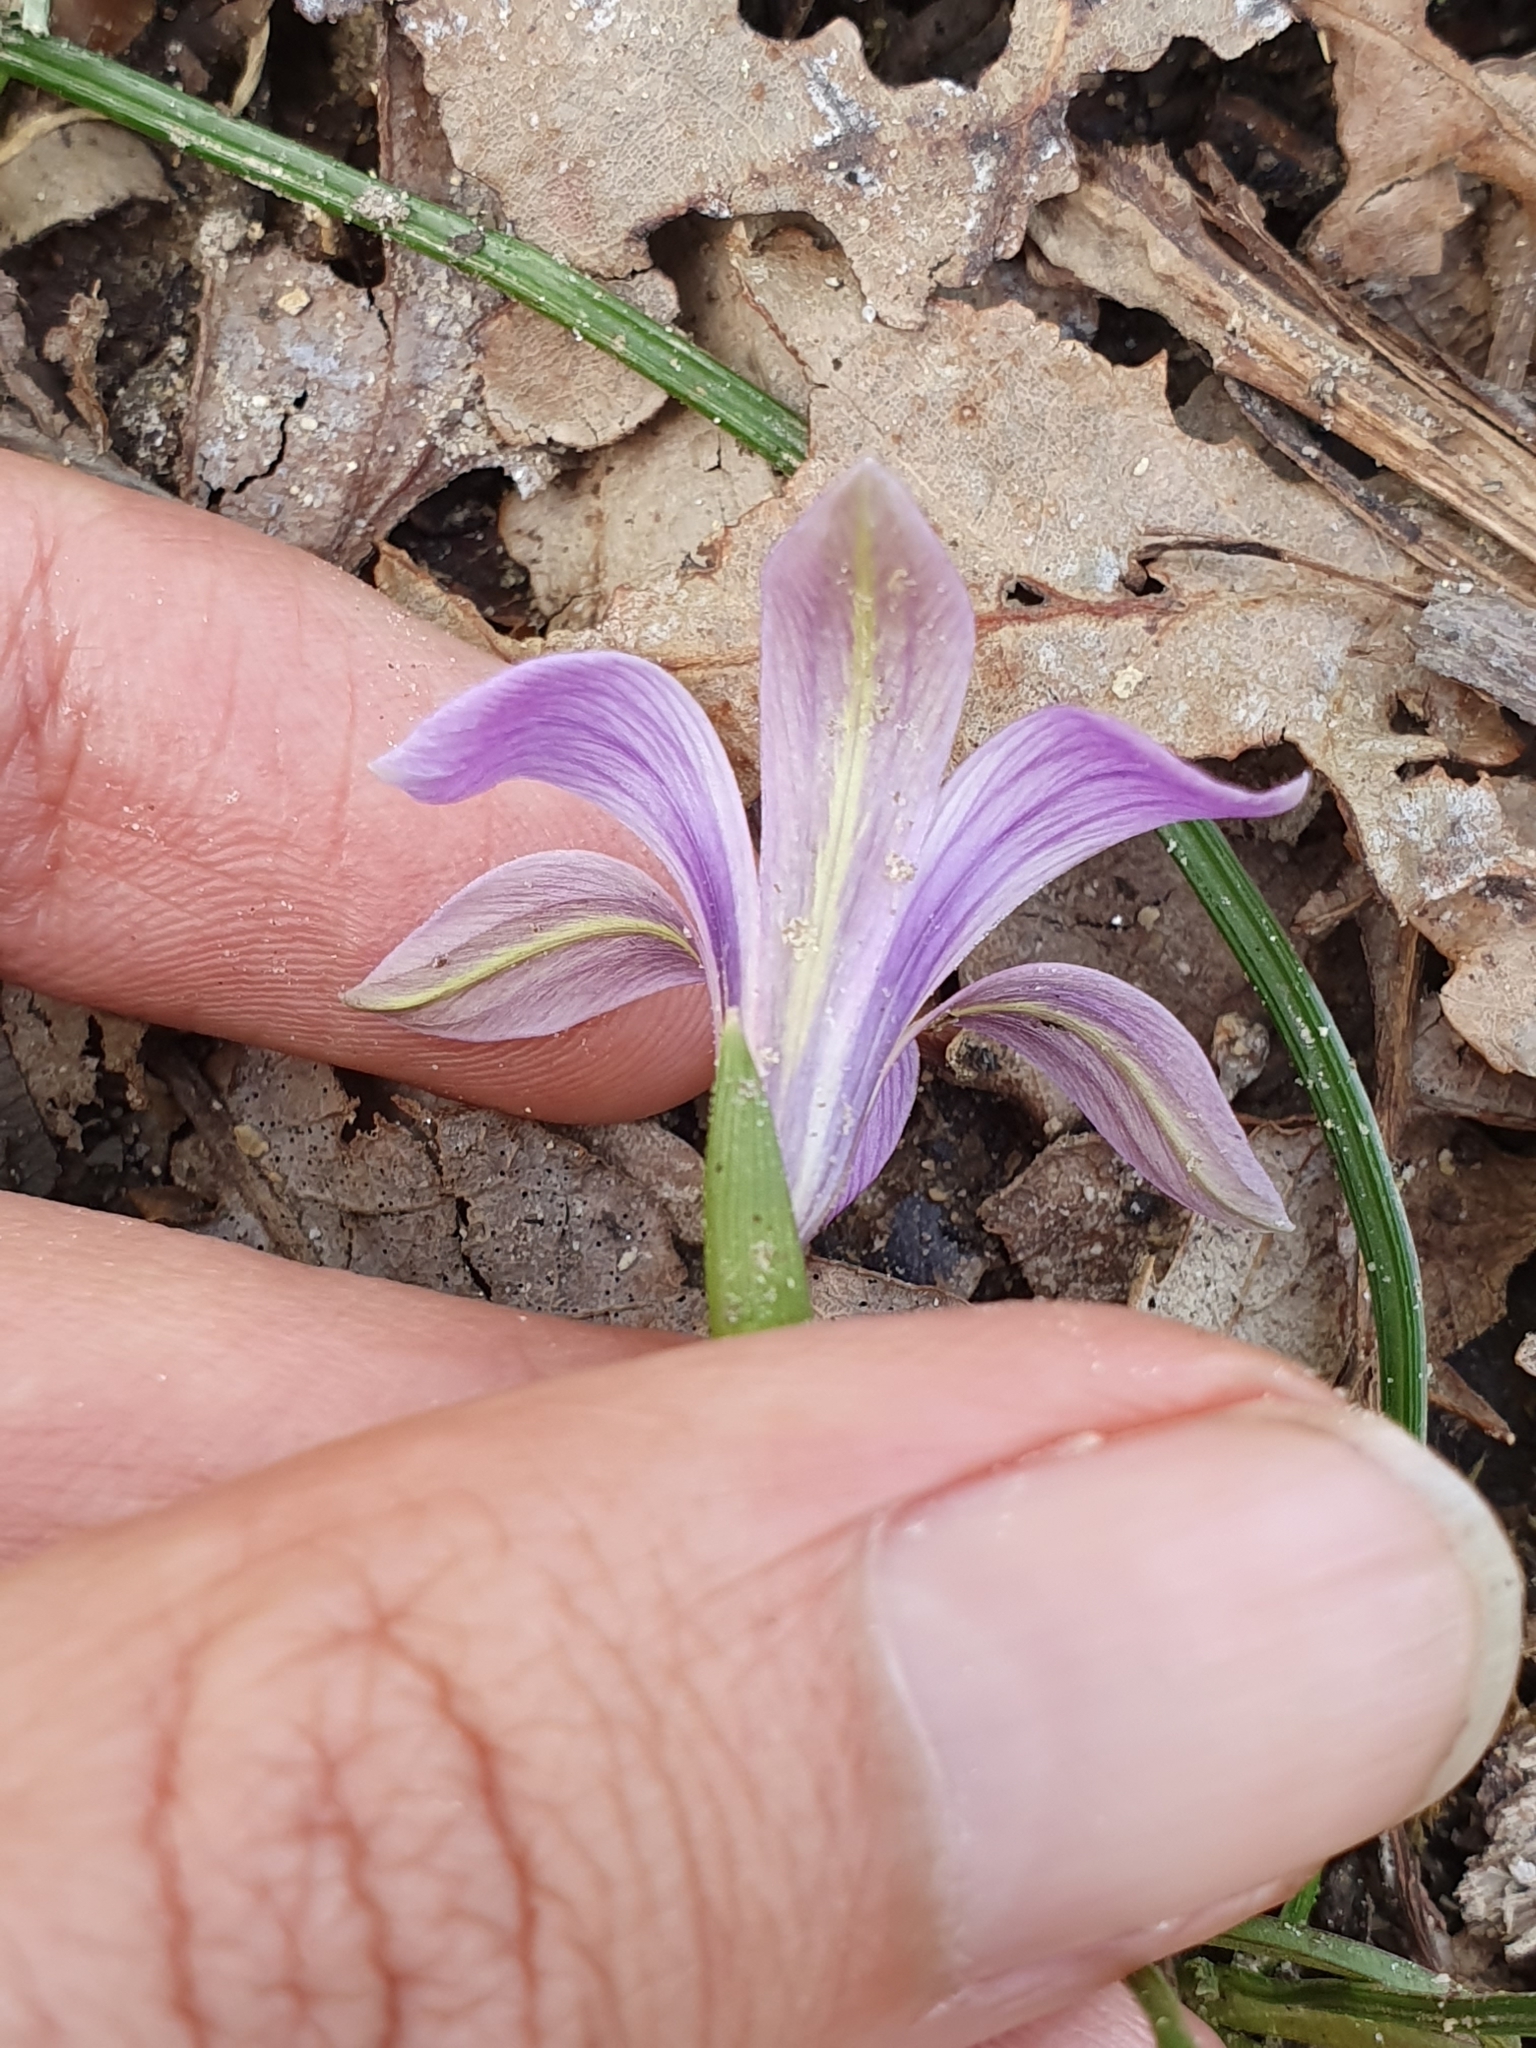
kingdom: Plantae
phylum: Tracheophyta
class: Liliopsida
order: Asparagales
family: Iridaceae
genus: Romulea
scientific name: Romulea ligustica
